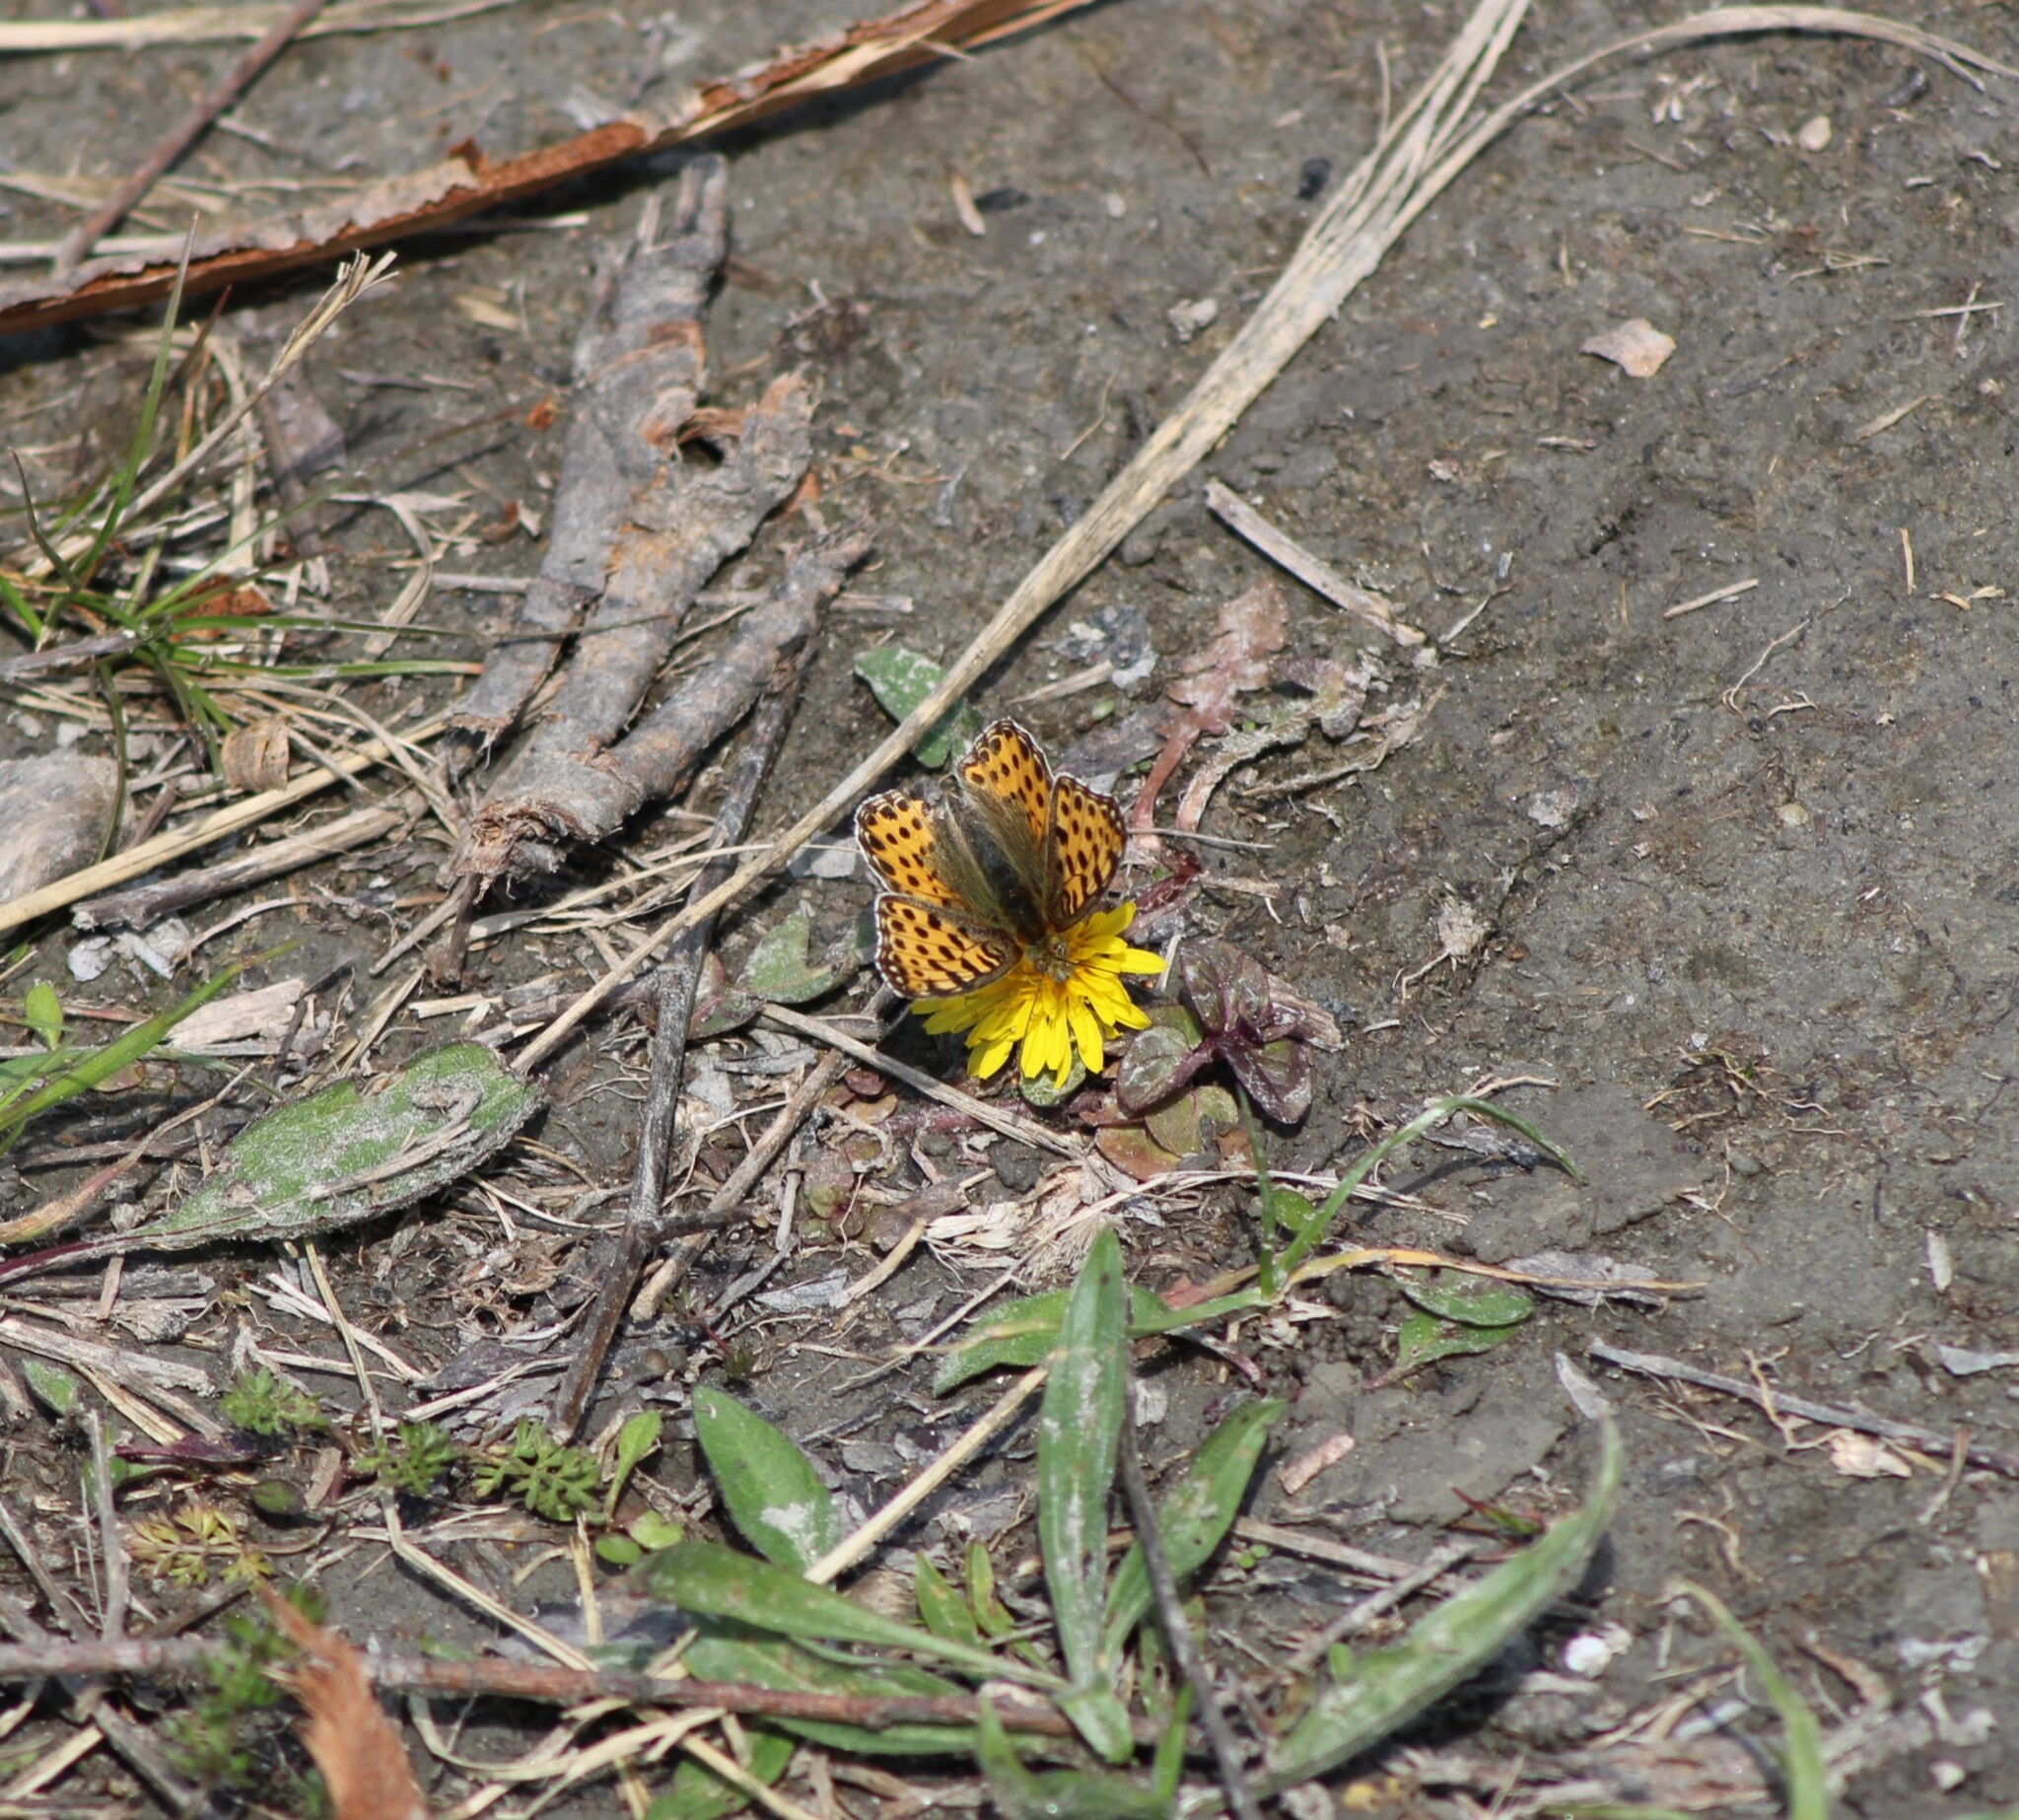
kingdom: Animalia
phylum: Arthropoda
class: Insecta
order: Lepidoptera
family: Nymphalidae
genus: Issoria
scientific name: Issoria lathonia
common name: Queen of spain fritillary
